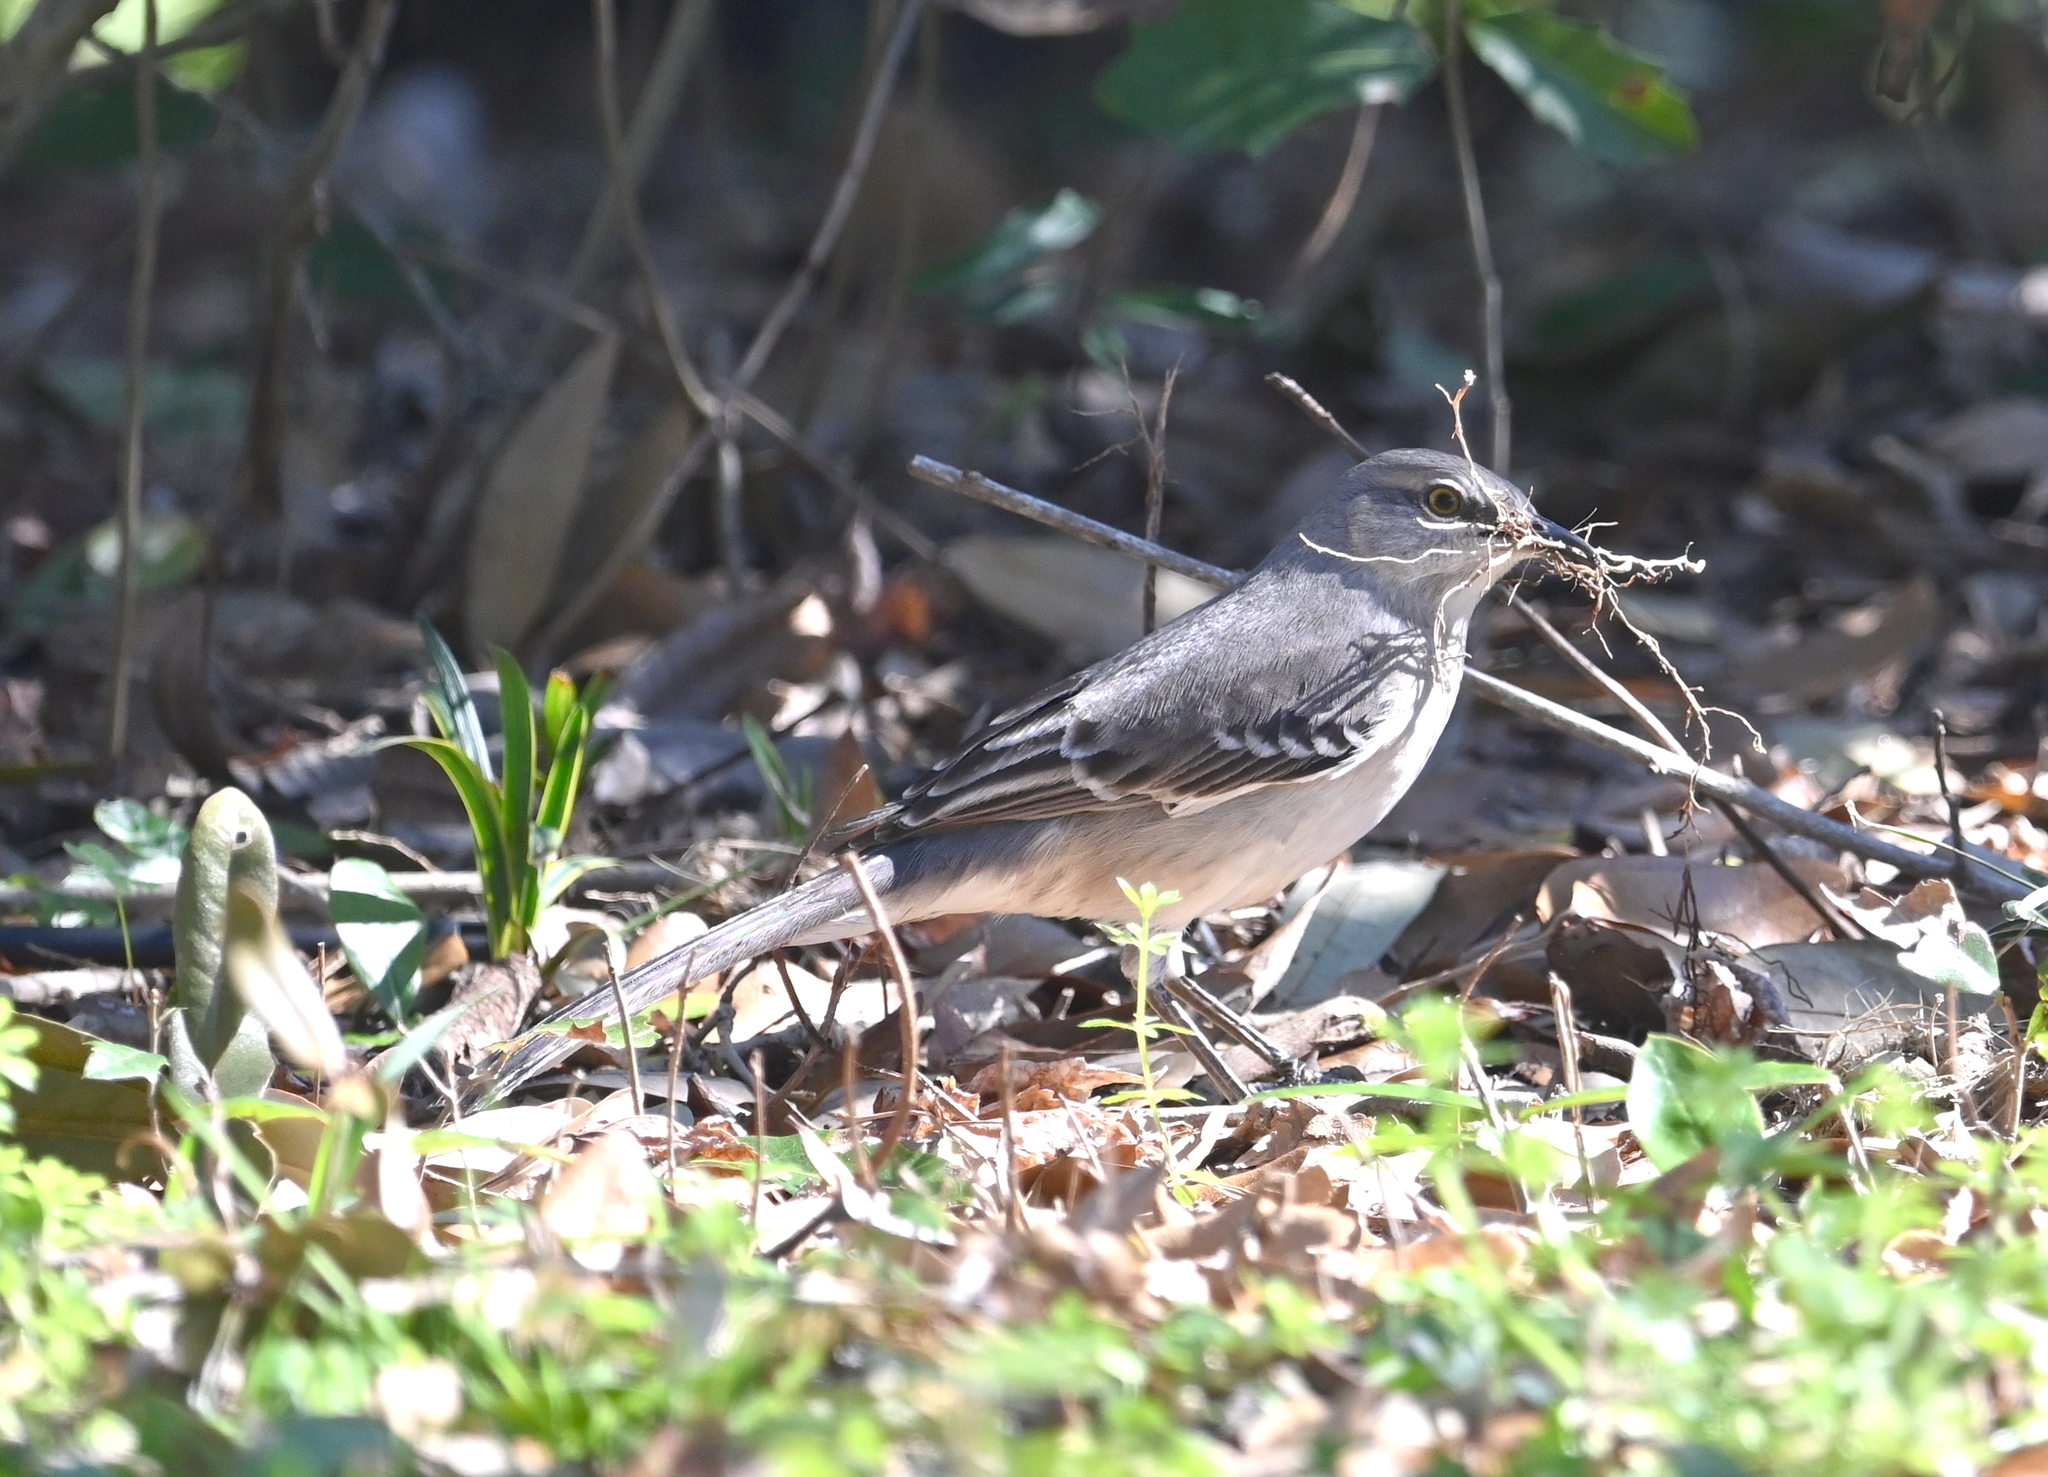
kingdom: Animalia
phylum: Chordata
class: Aves
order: Passeriformes
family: Mimidae
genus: Mimus
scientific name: Mimus polyglottos
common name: Northern mockingbird
